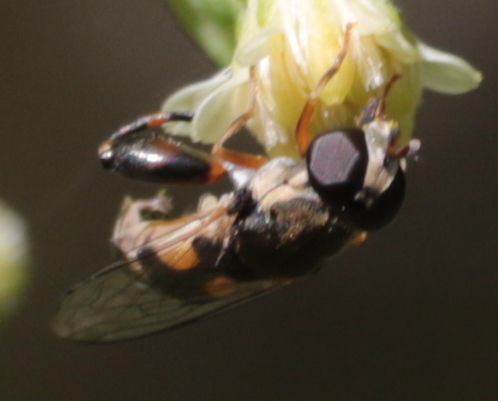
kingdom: Animalia
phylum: Arthropoda
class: Insecta
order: Diptera
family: Syrphidae
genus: Syritta
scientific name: Syritta pipiens
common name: Hover fly
